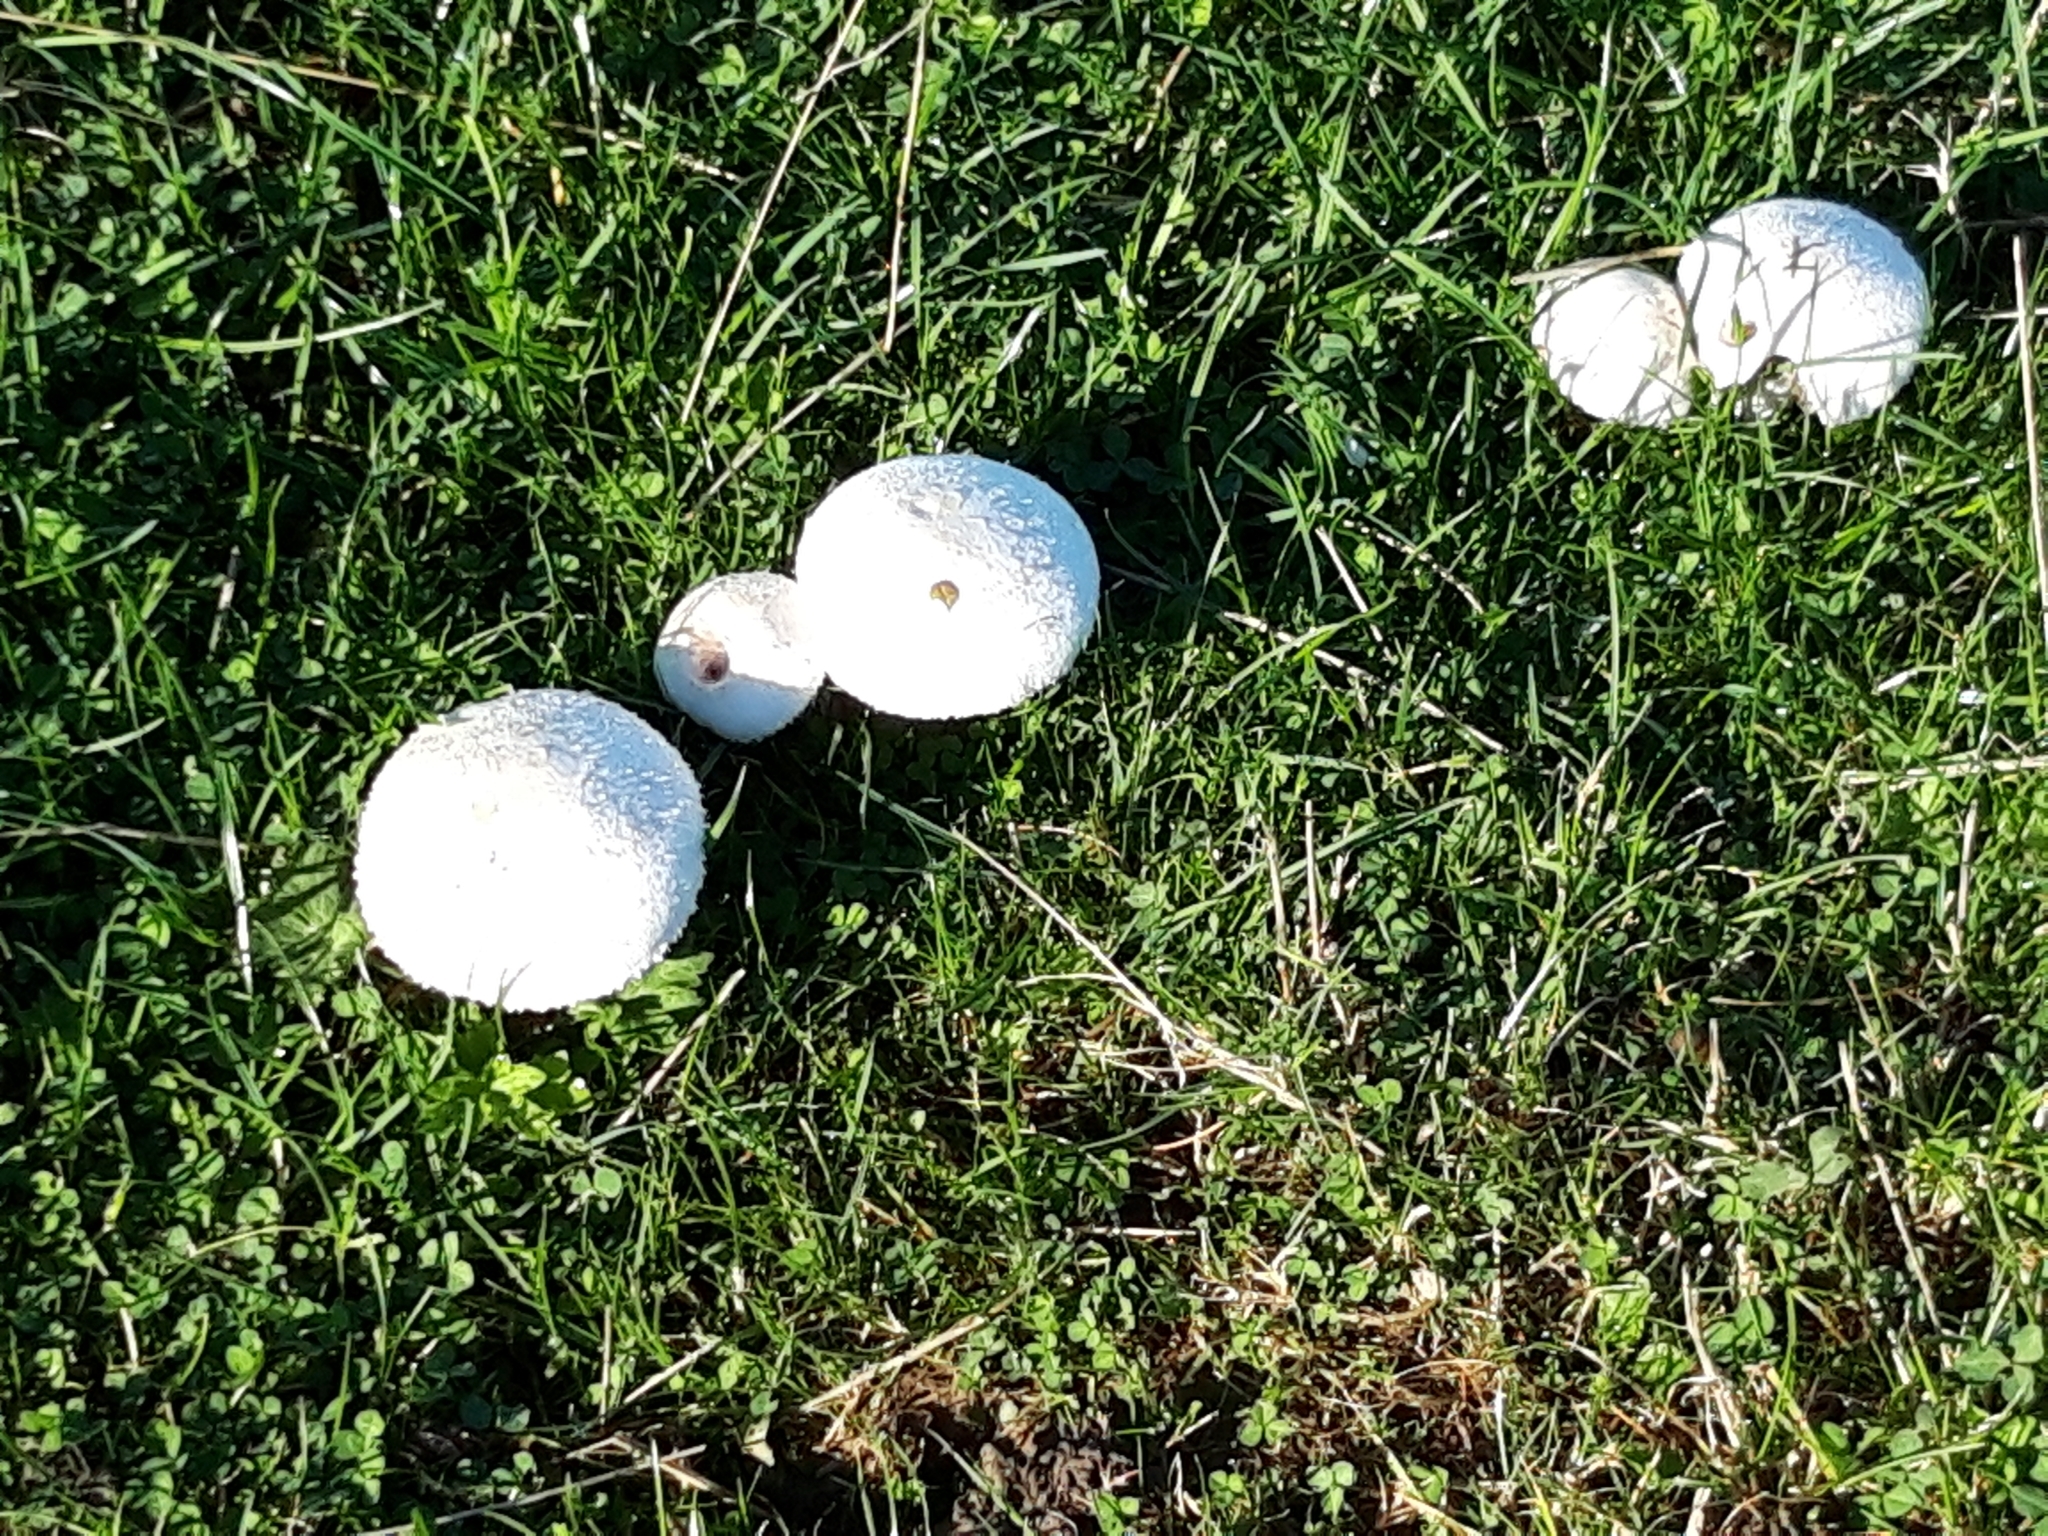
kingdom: Fungi
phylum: Basidiomycota
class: Agaricomycetes
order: Agaricales
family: Agaricaceae
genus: Agaricus
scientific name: Agaricus campestris
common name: Field mushroom
